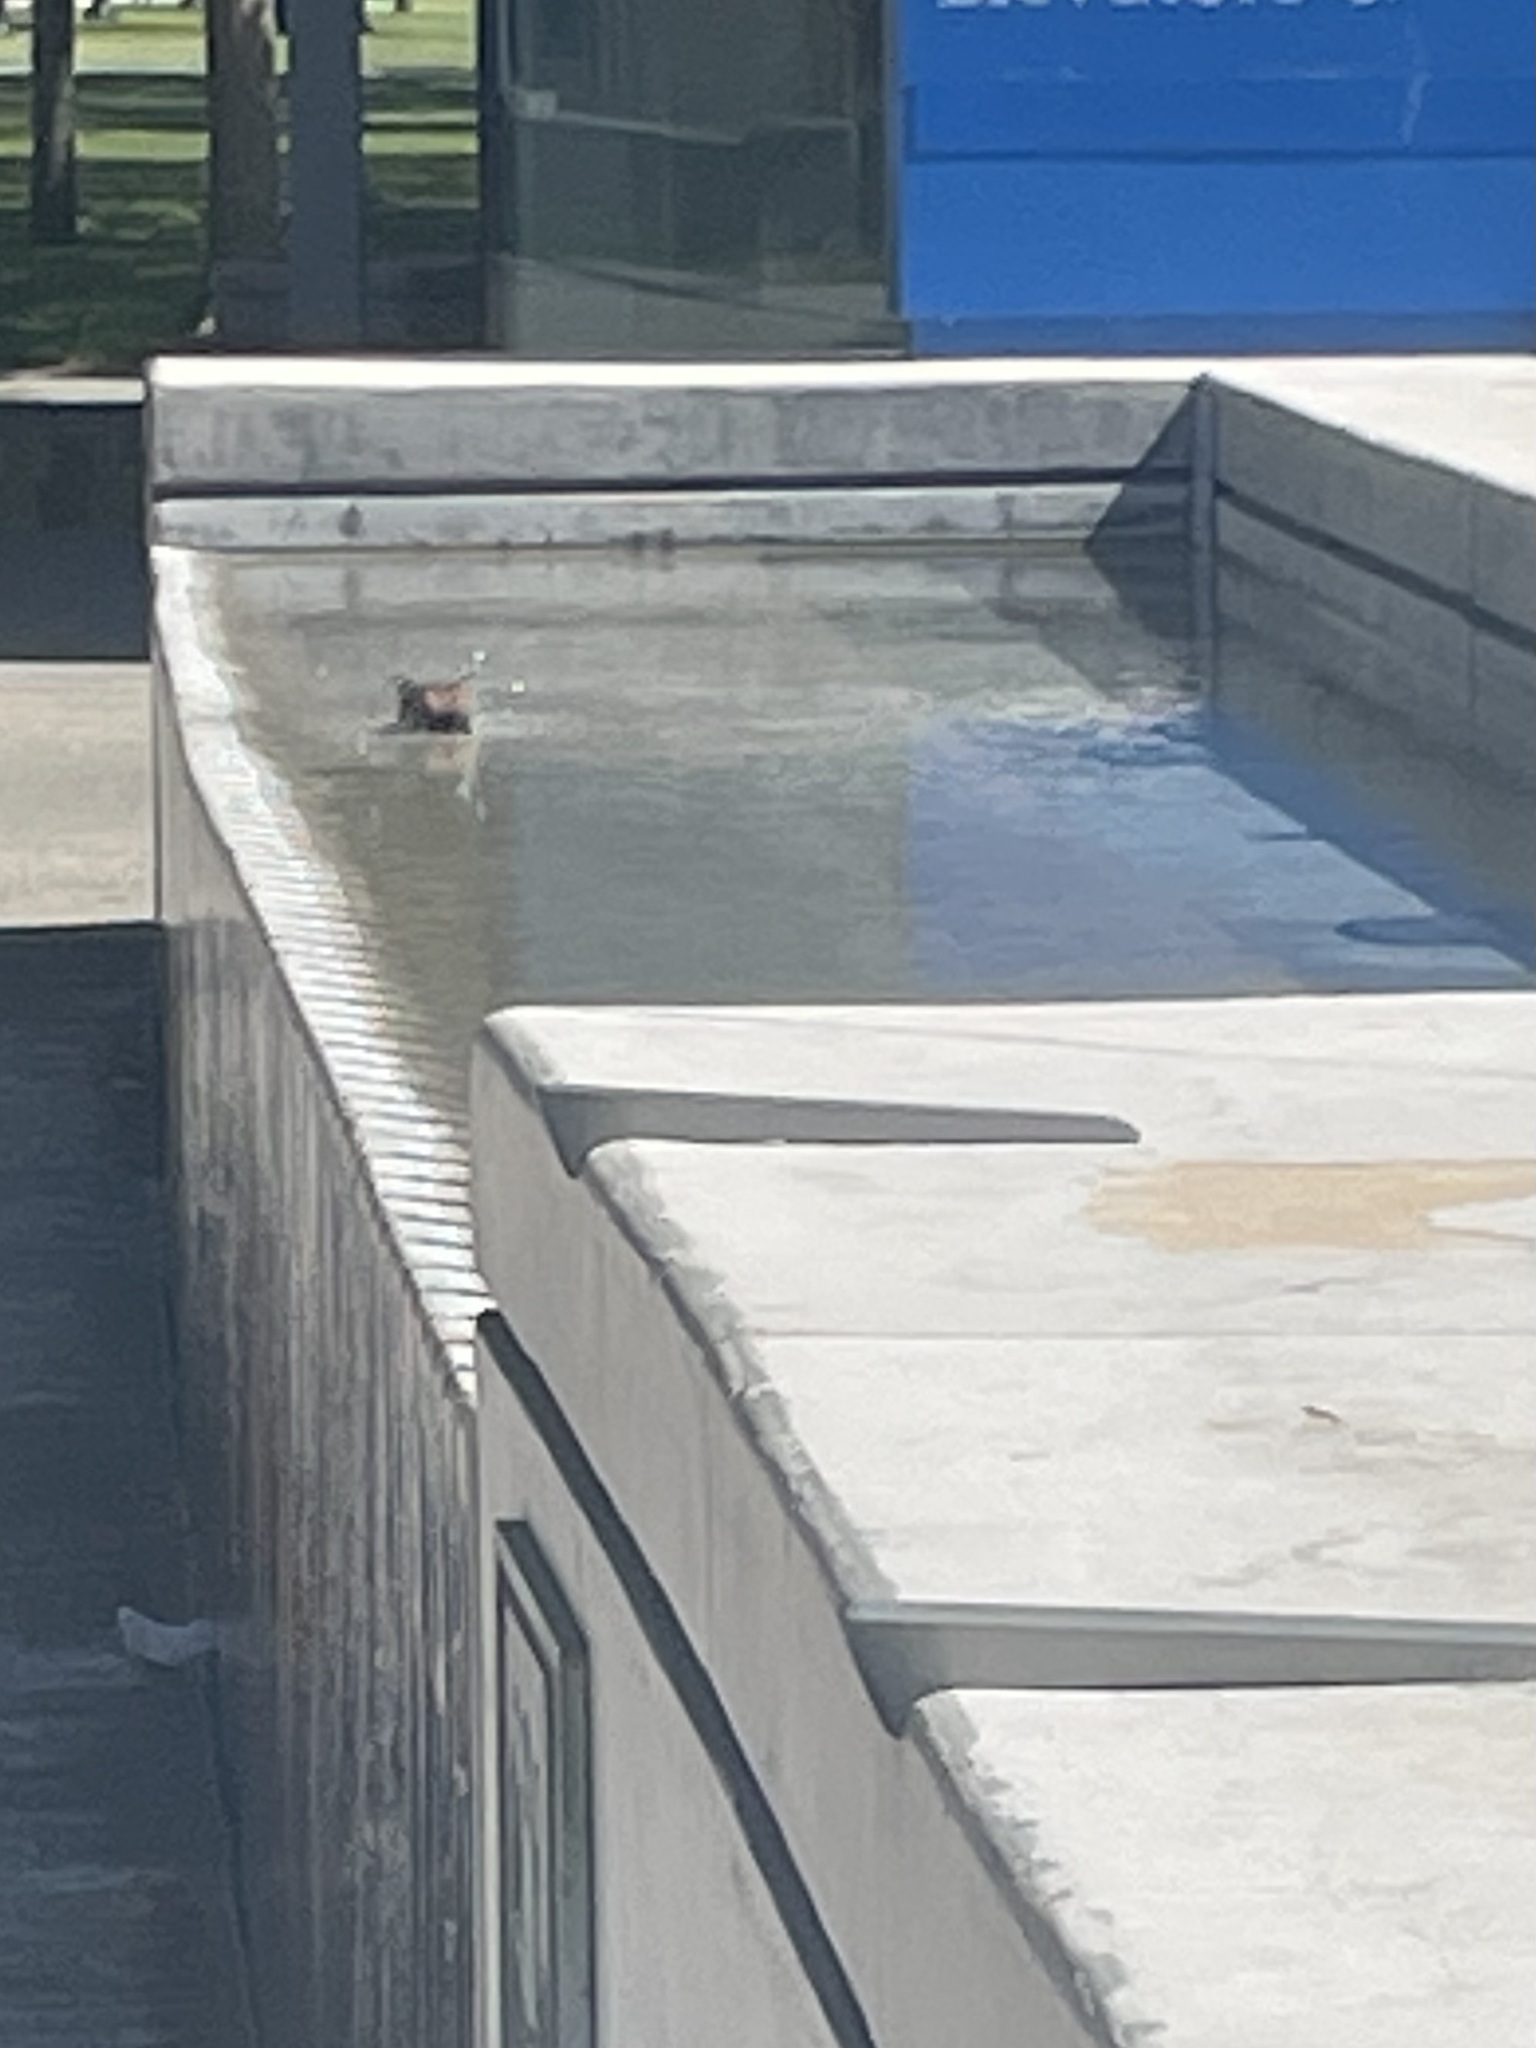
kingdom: Animalia
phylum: Chordata
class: Aves
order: Passeriformes
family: Passerellidae
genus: Junco
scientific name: Junco hyemalis
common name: Dark-eyed junco
